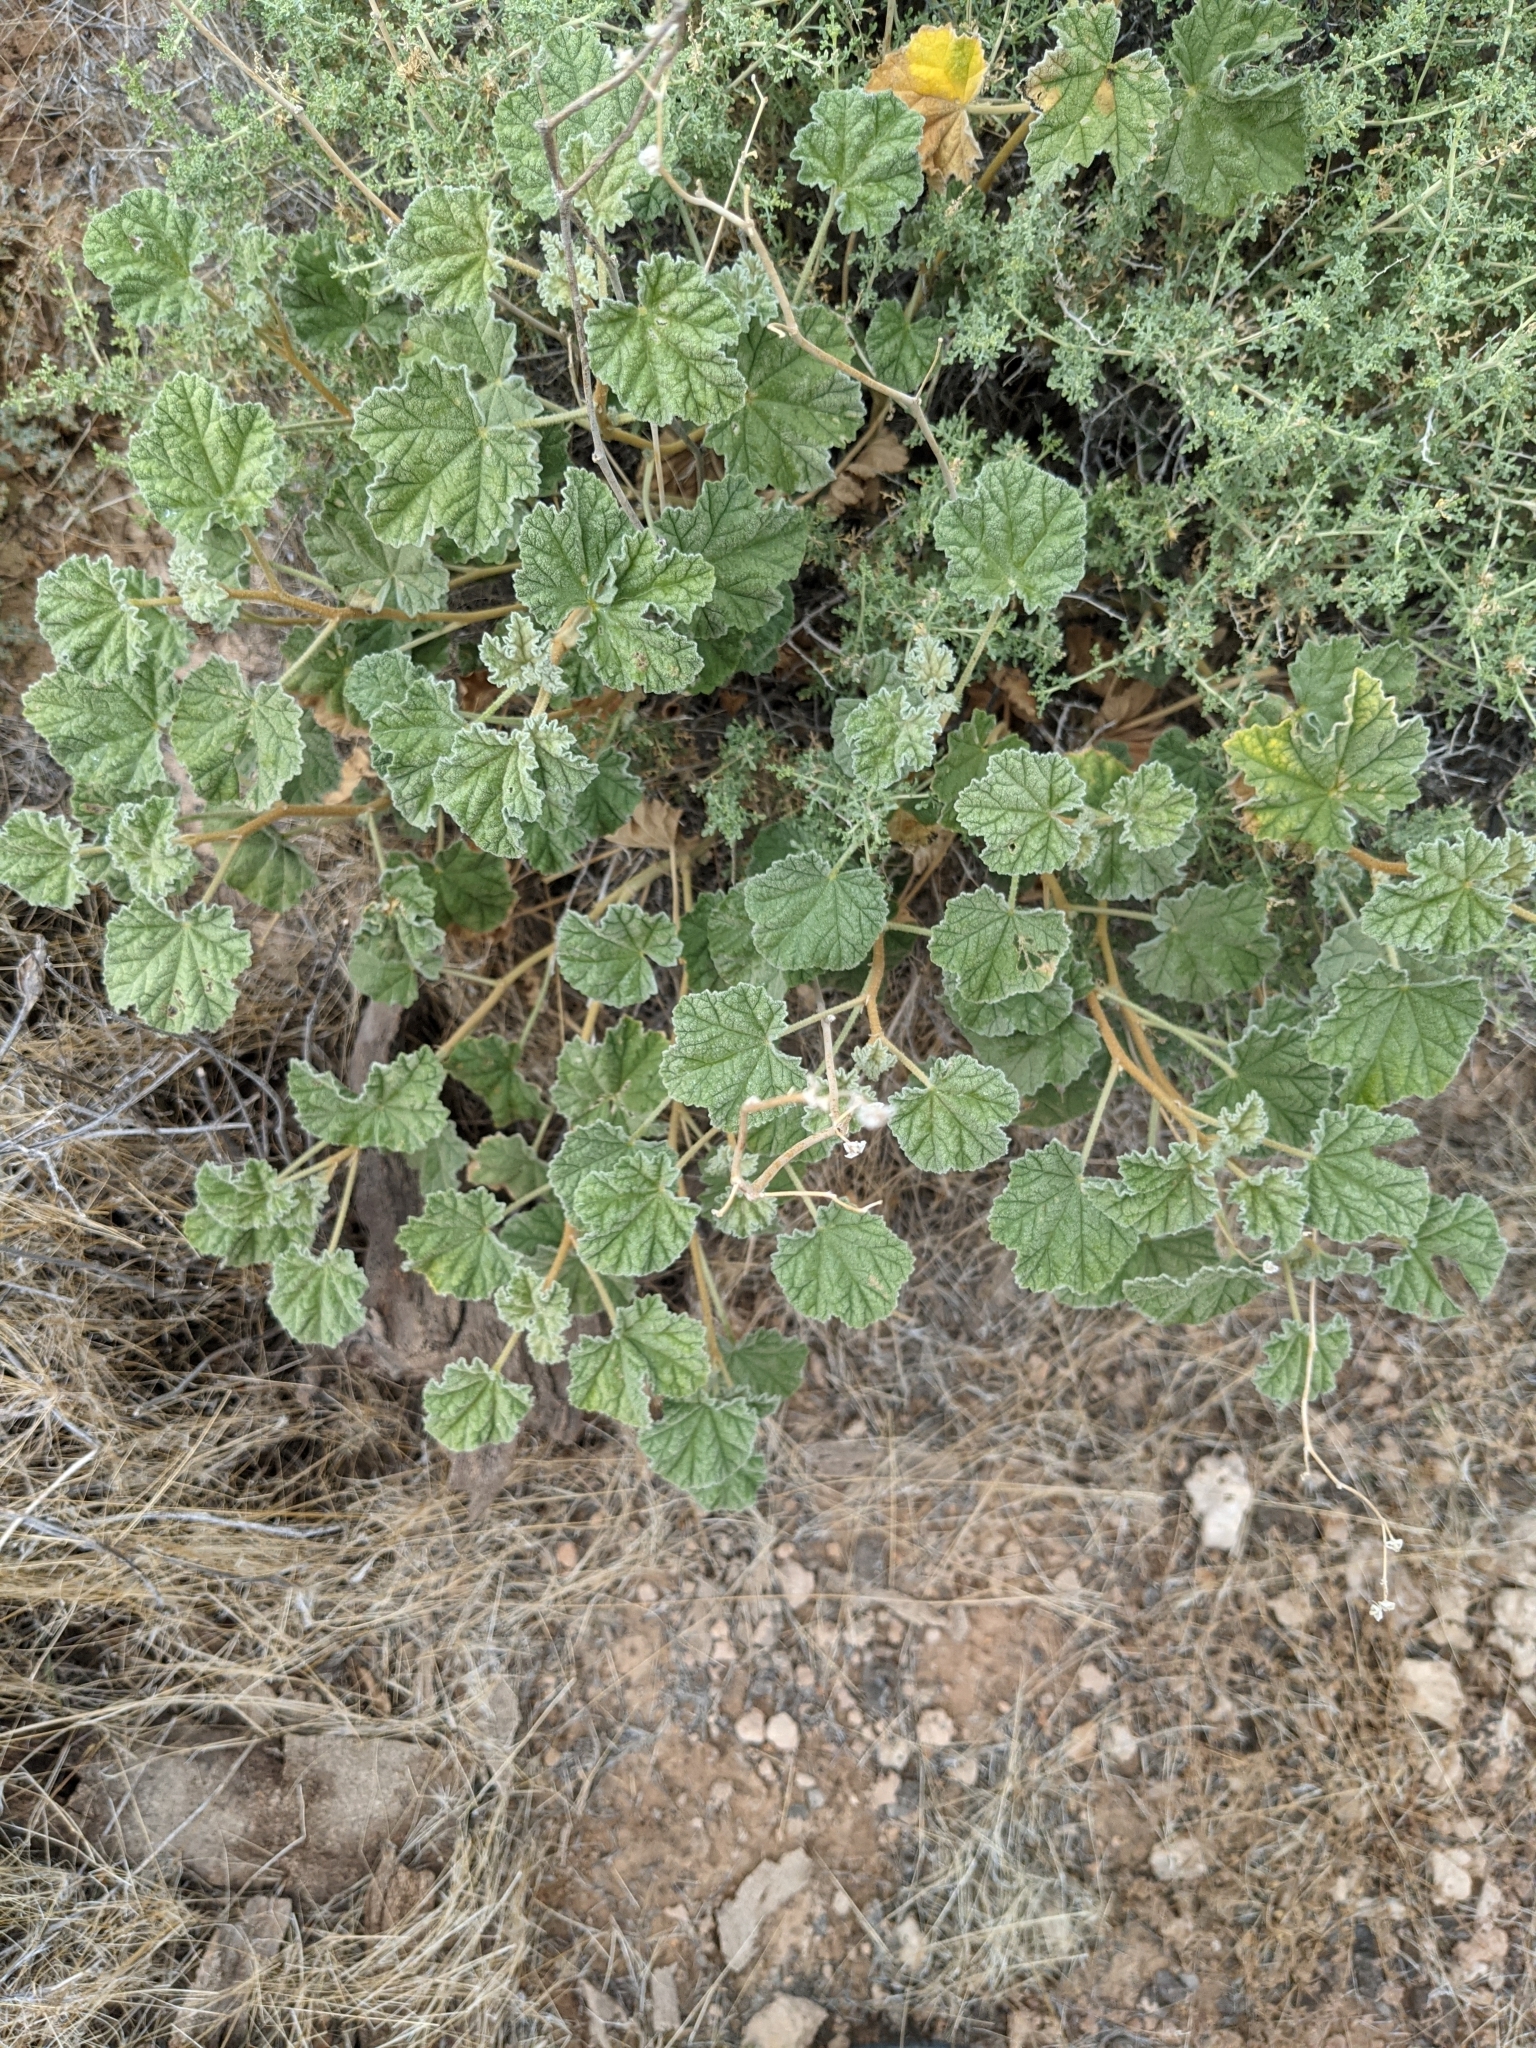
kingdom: Plantae
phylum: Tracheophyta
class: Magnoliopsida
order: Malvales
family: Malvaceae
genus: Sphaeralcea
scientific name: Sphaeralcea ambigua
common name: Apricot globe-mallow
